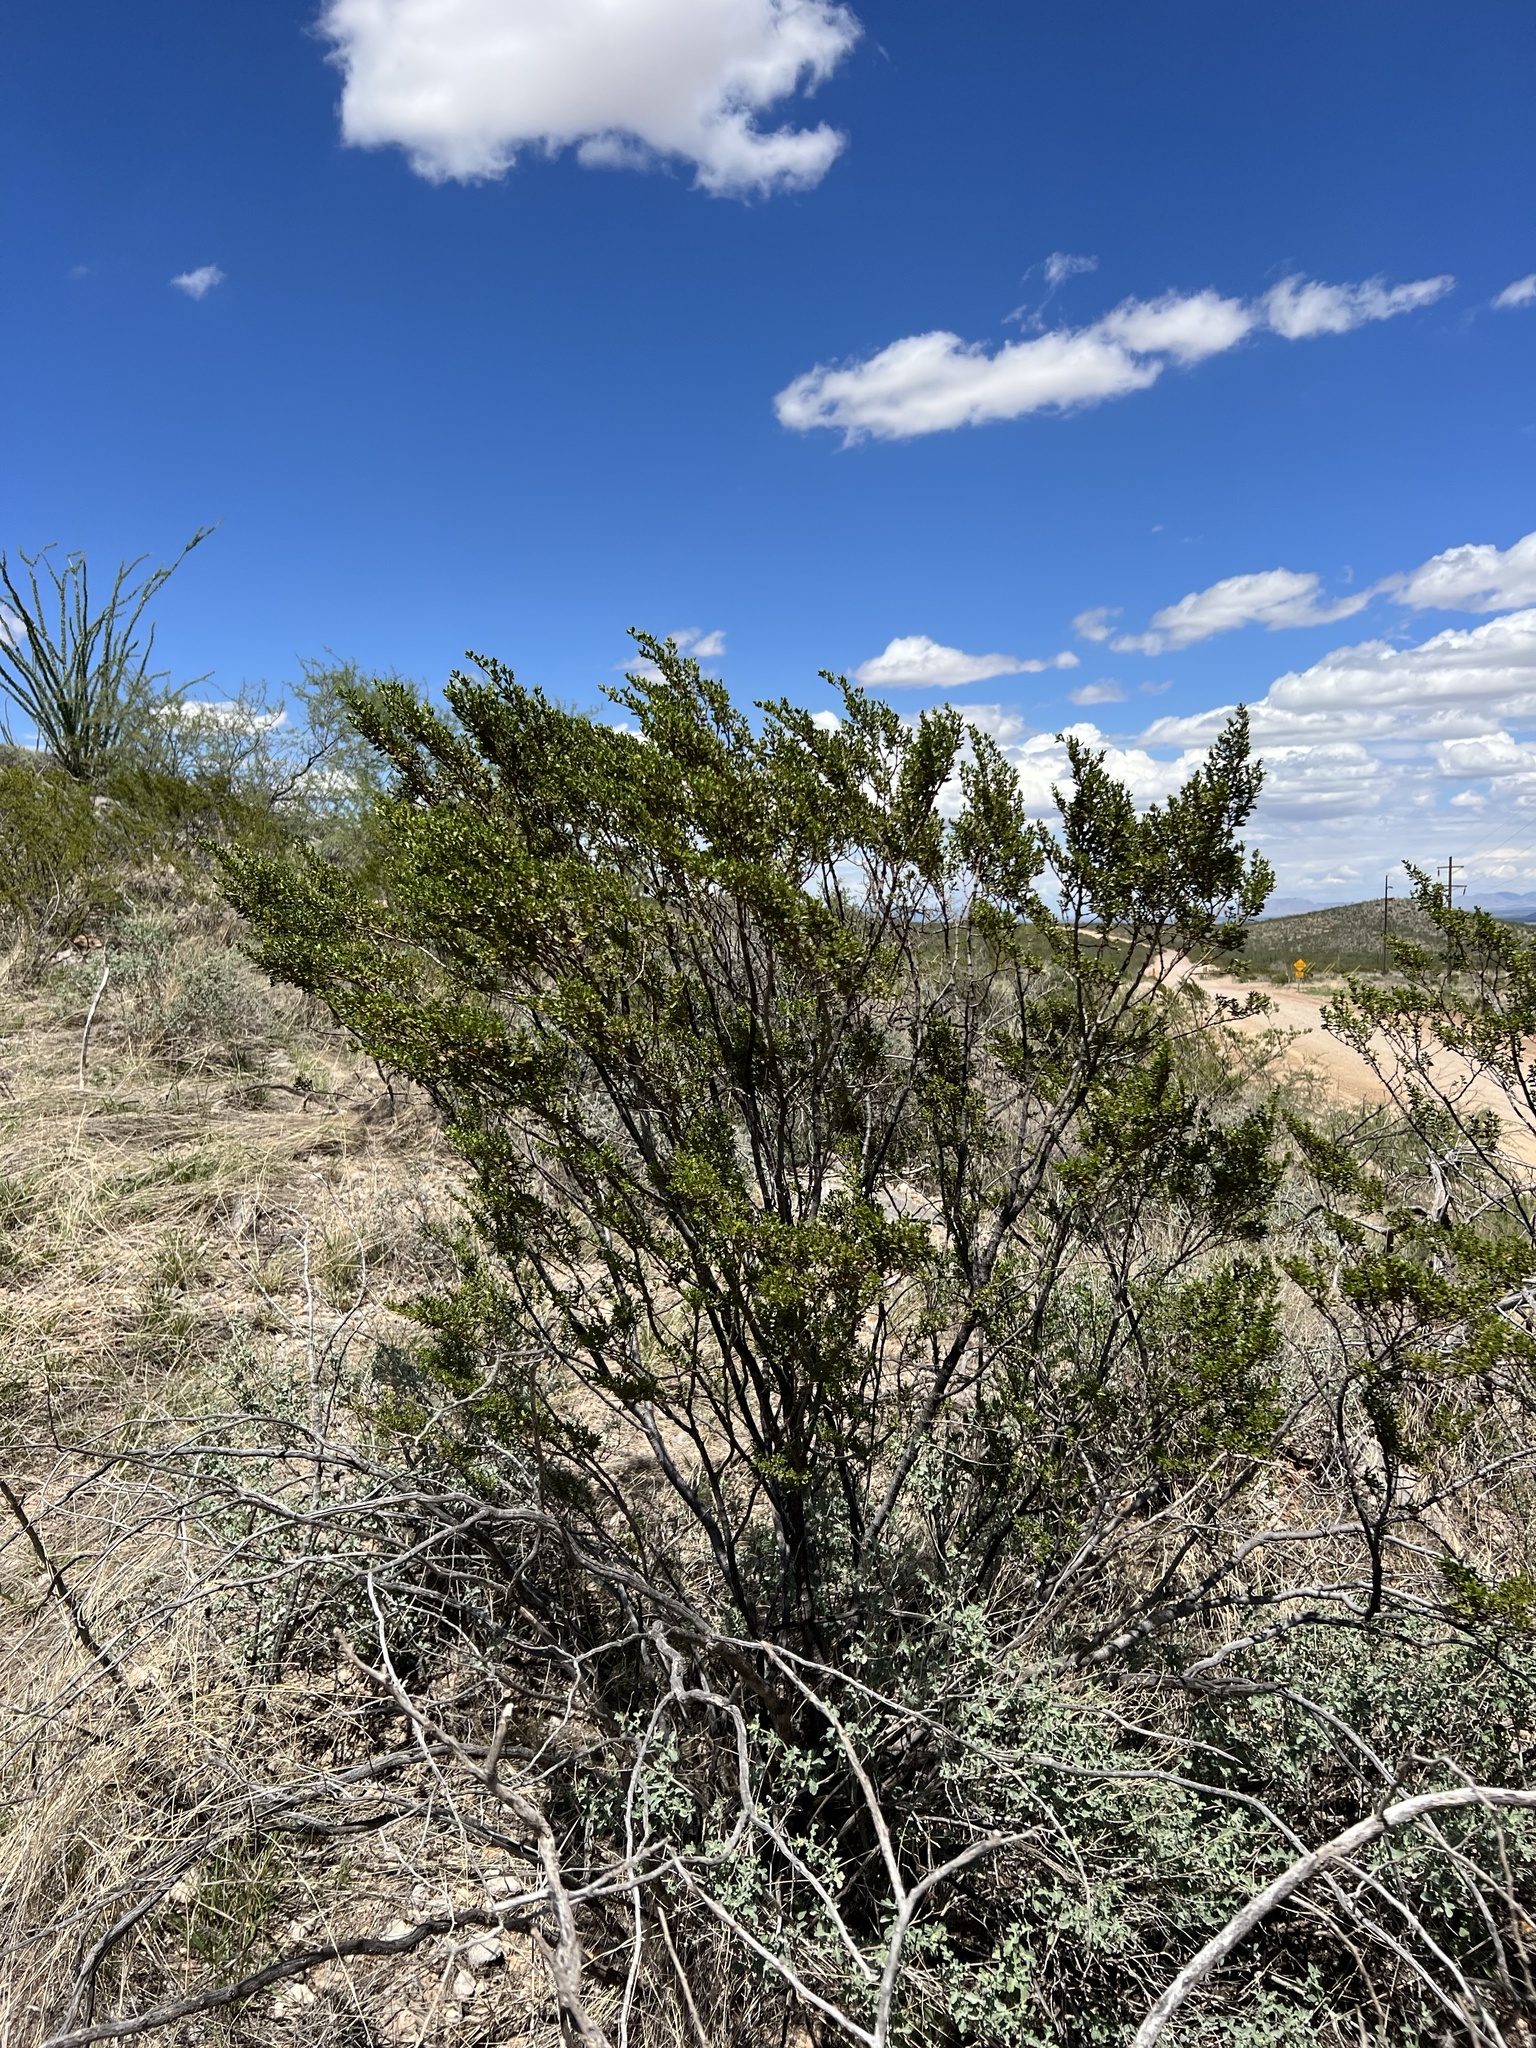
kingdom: Plantae
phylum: Tracheophyta
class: Magnoliopsida
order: Zygophyllales
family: Zygophyllaceae
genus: Larrea
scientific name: Larrea tridentata
